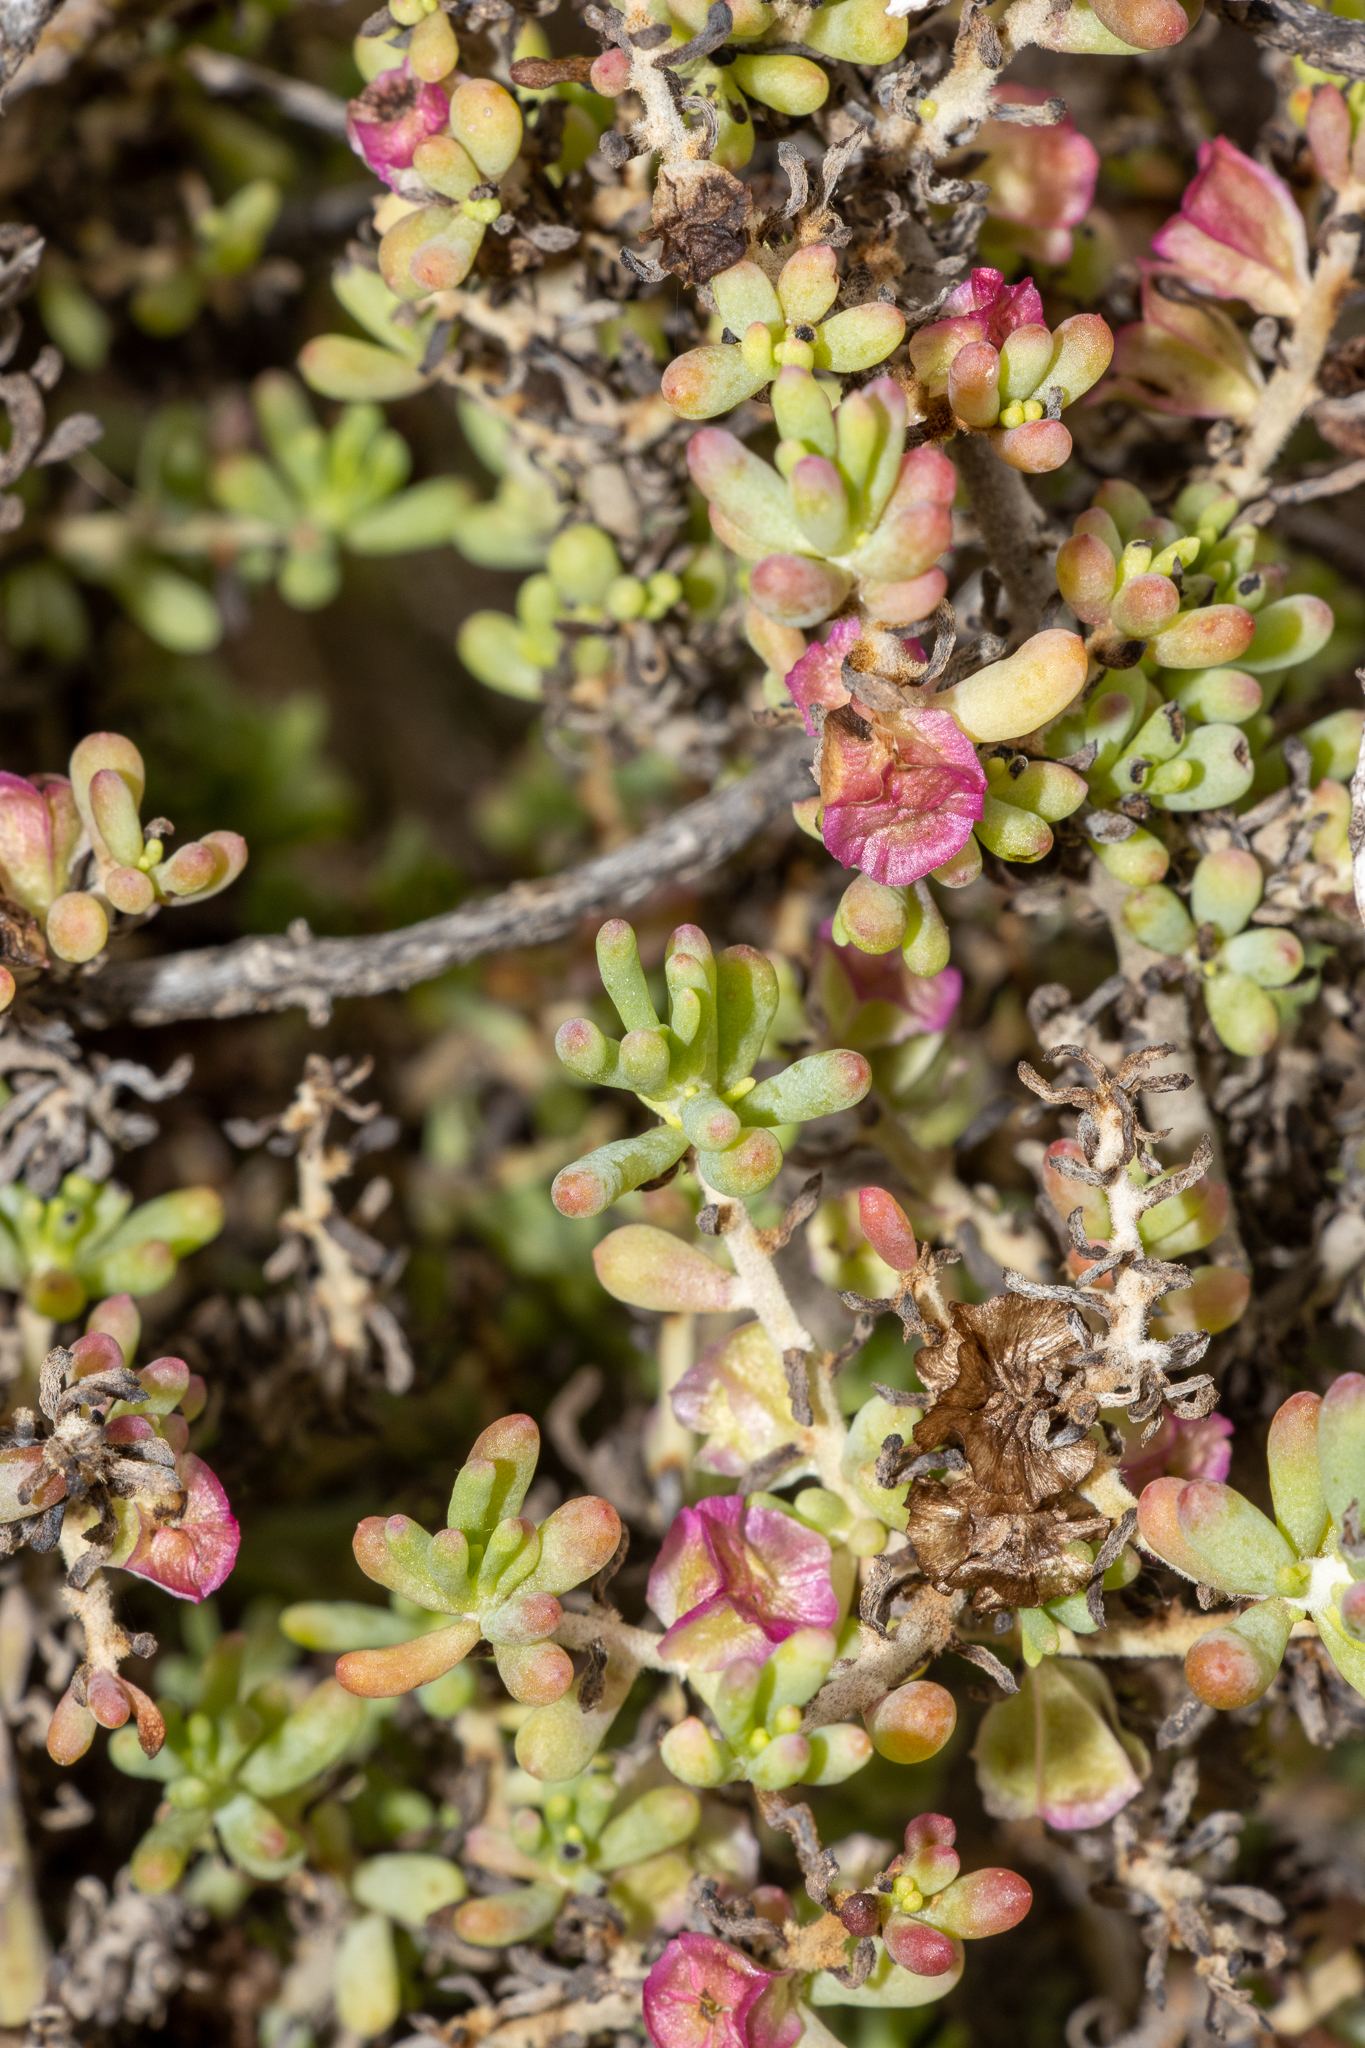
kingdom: Plantae
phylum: Tracheophyta
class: Magnoliopsida
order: Caryophyllales
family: Amaranthaceae
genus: Maireana
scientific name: Maireana erioclada
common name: Rosy bluebush
